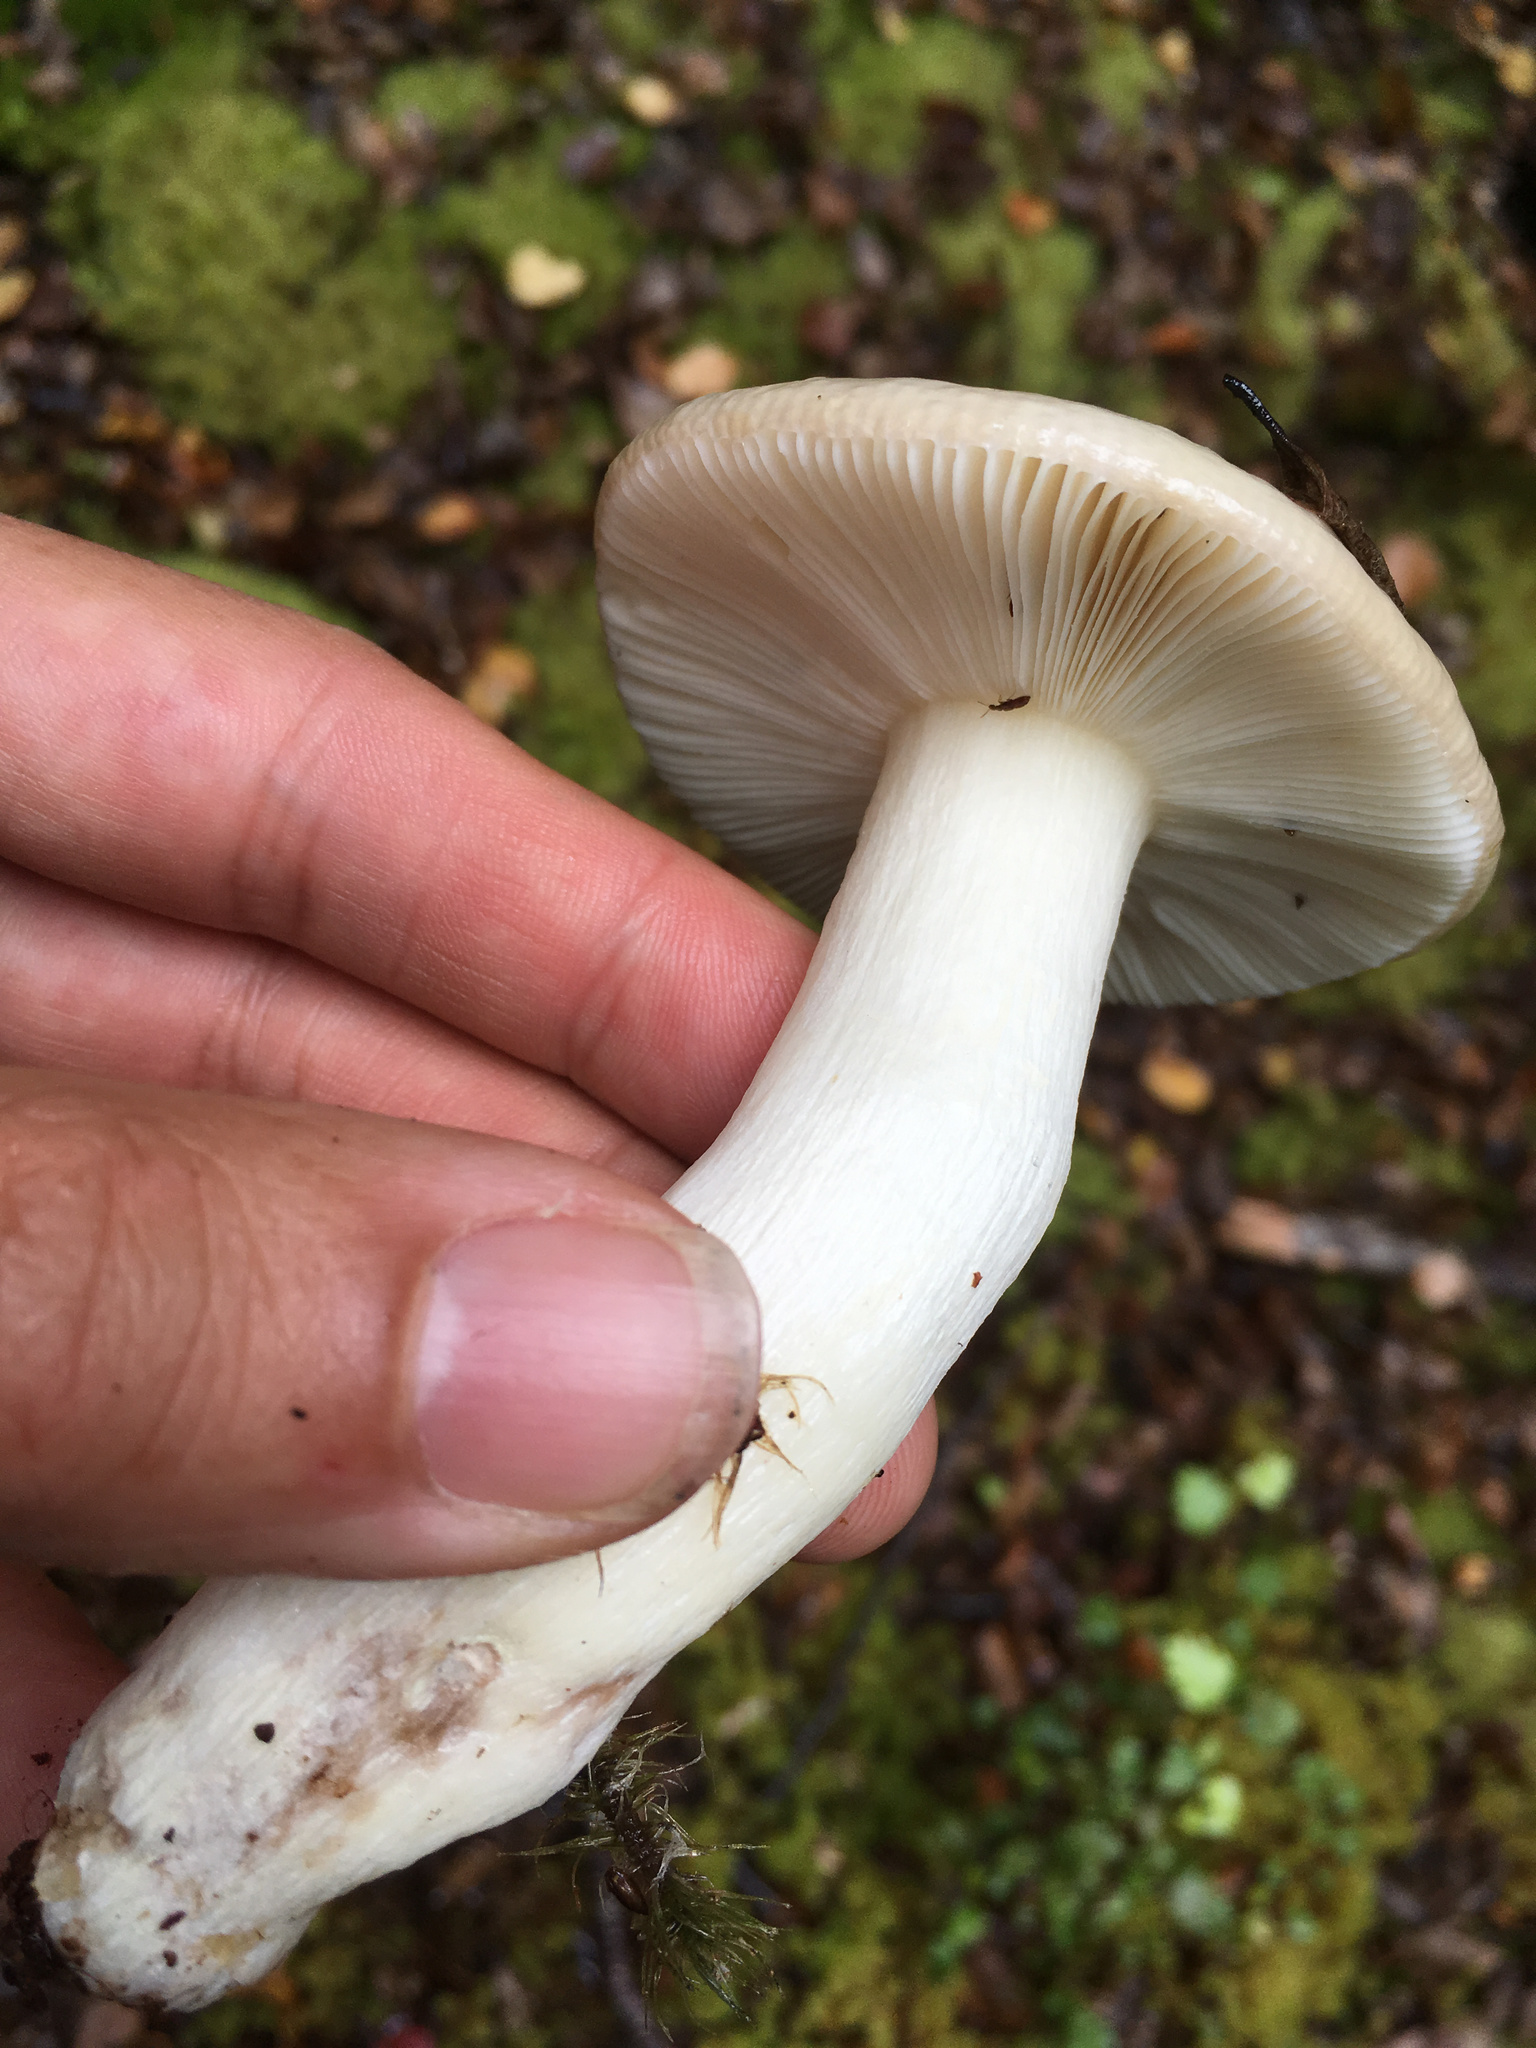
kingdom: Fungi
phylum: Basidiomycota
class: Agaricomycetes
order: Russulales
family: Russulaceae
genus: Russula
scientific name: Russula purpureotincta
